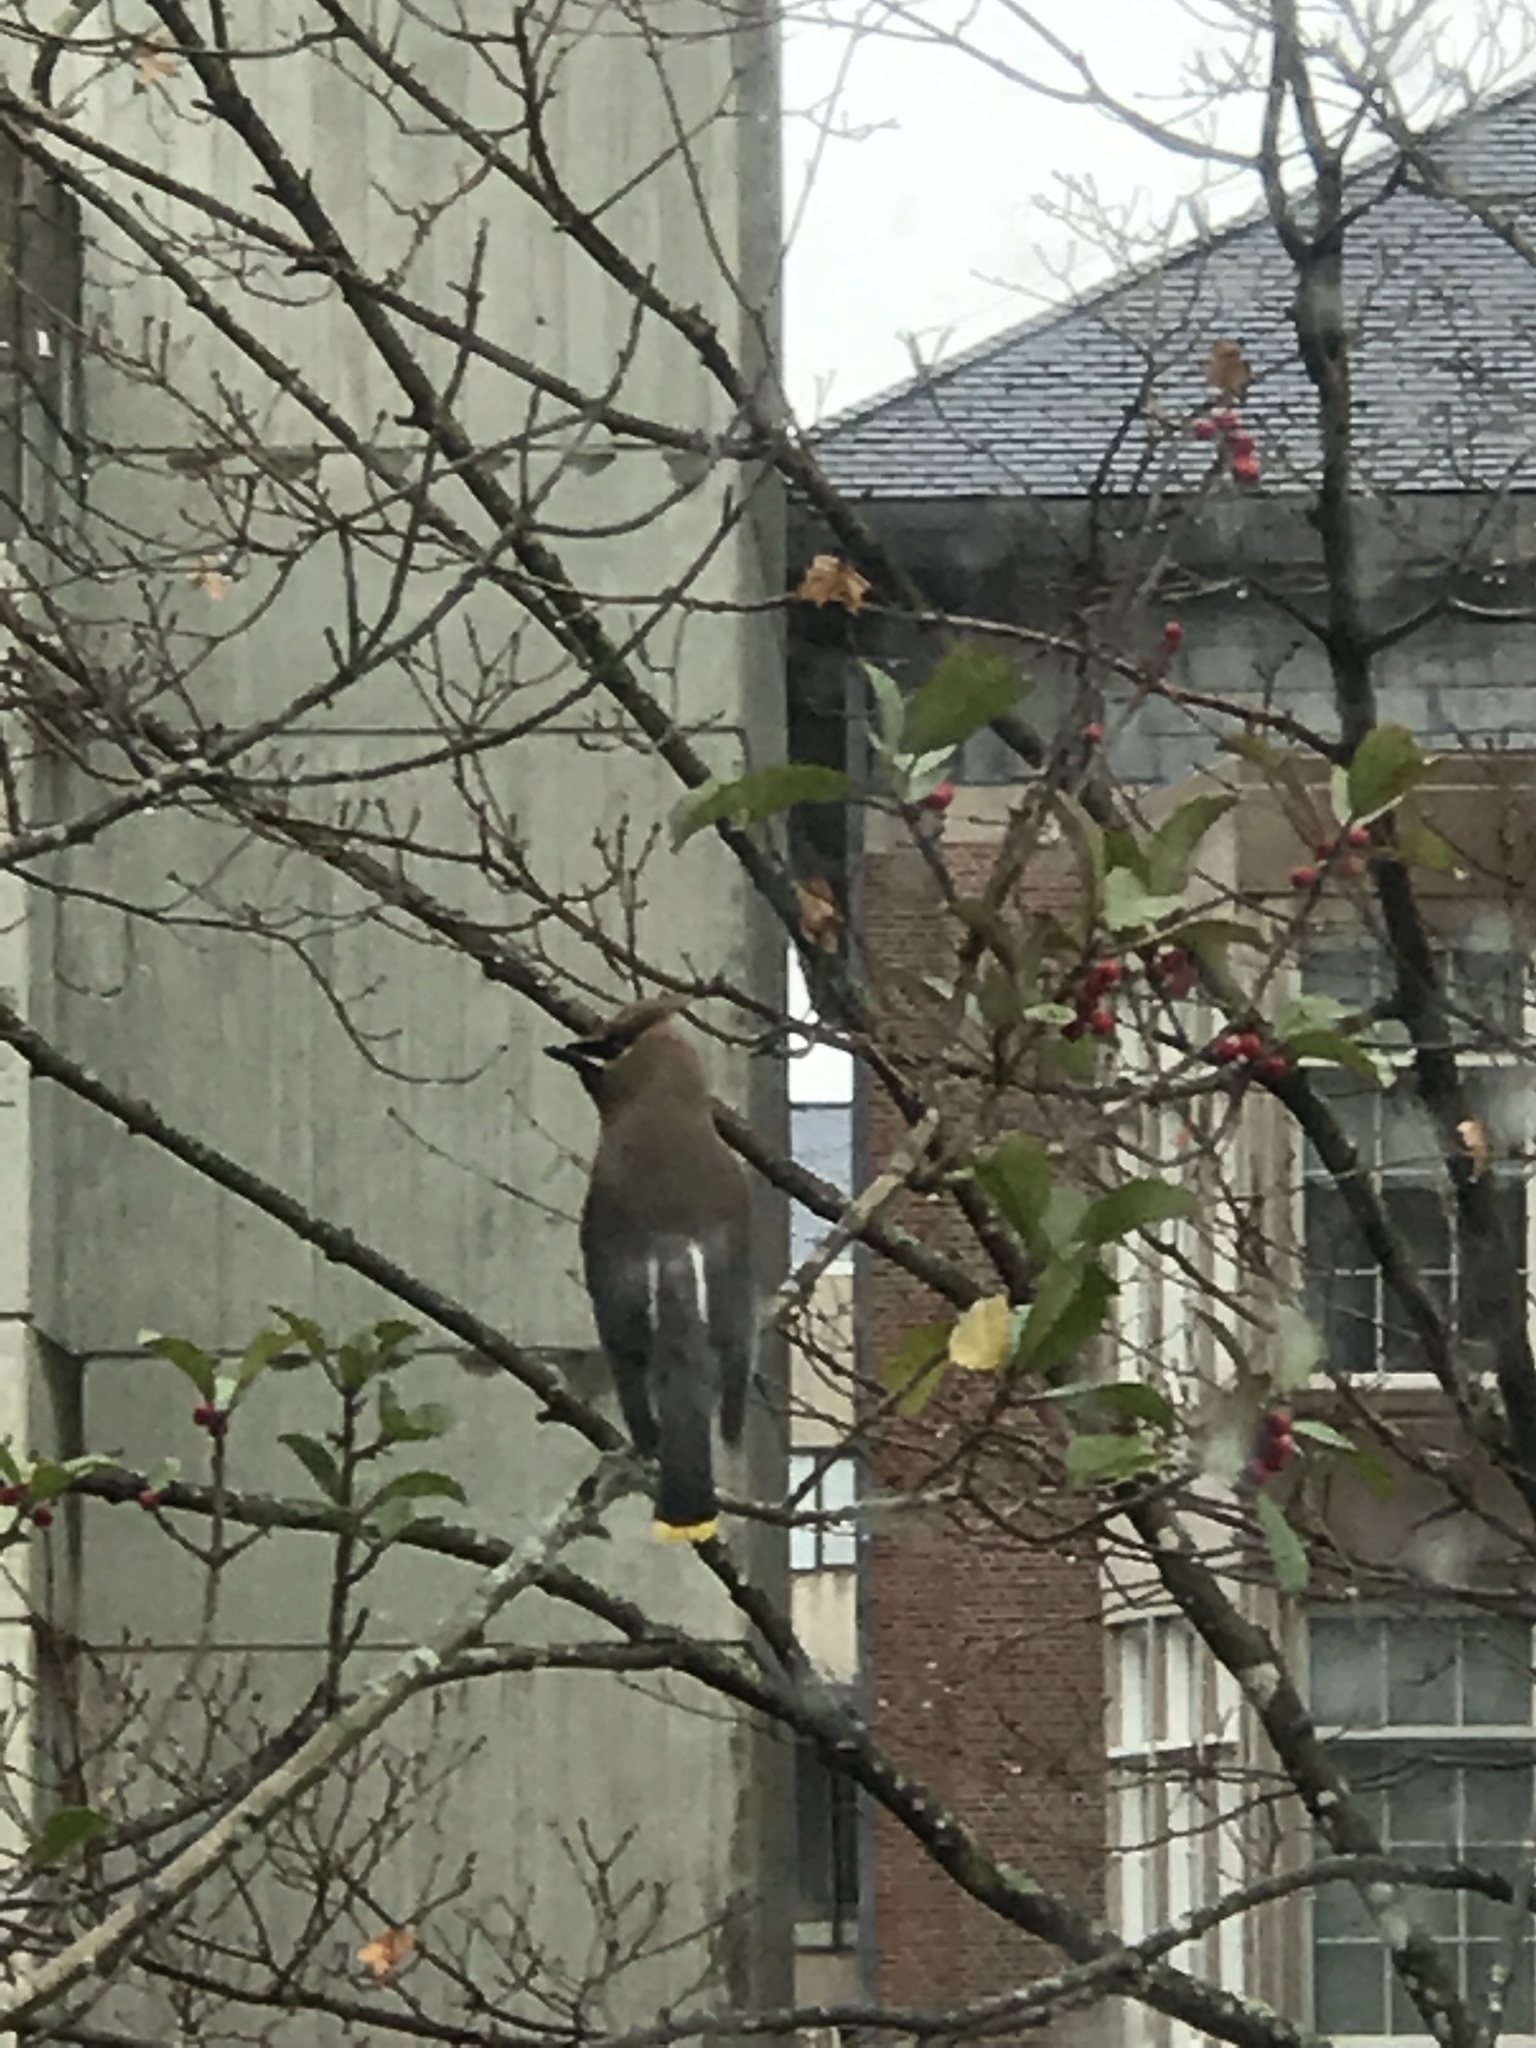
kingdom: Animalia
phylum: Chordata
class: Aves
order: Passeriformes
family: Bombycillidae
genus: Bombycilla
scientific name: Bombycilla cedrorum
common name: Cedar waxwing
